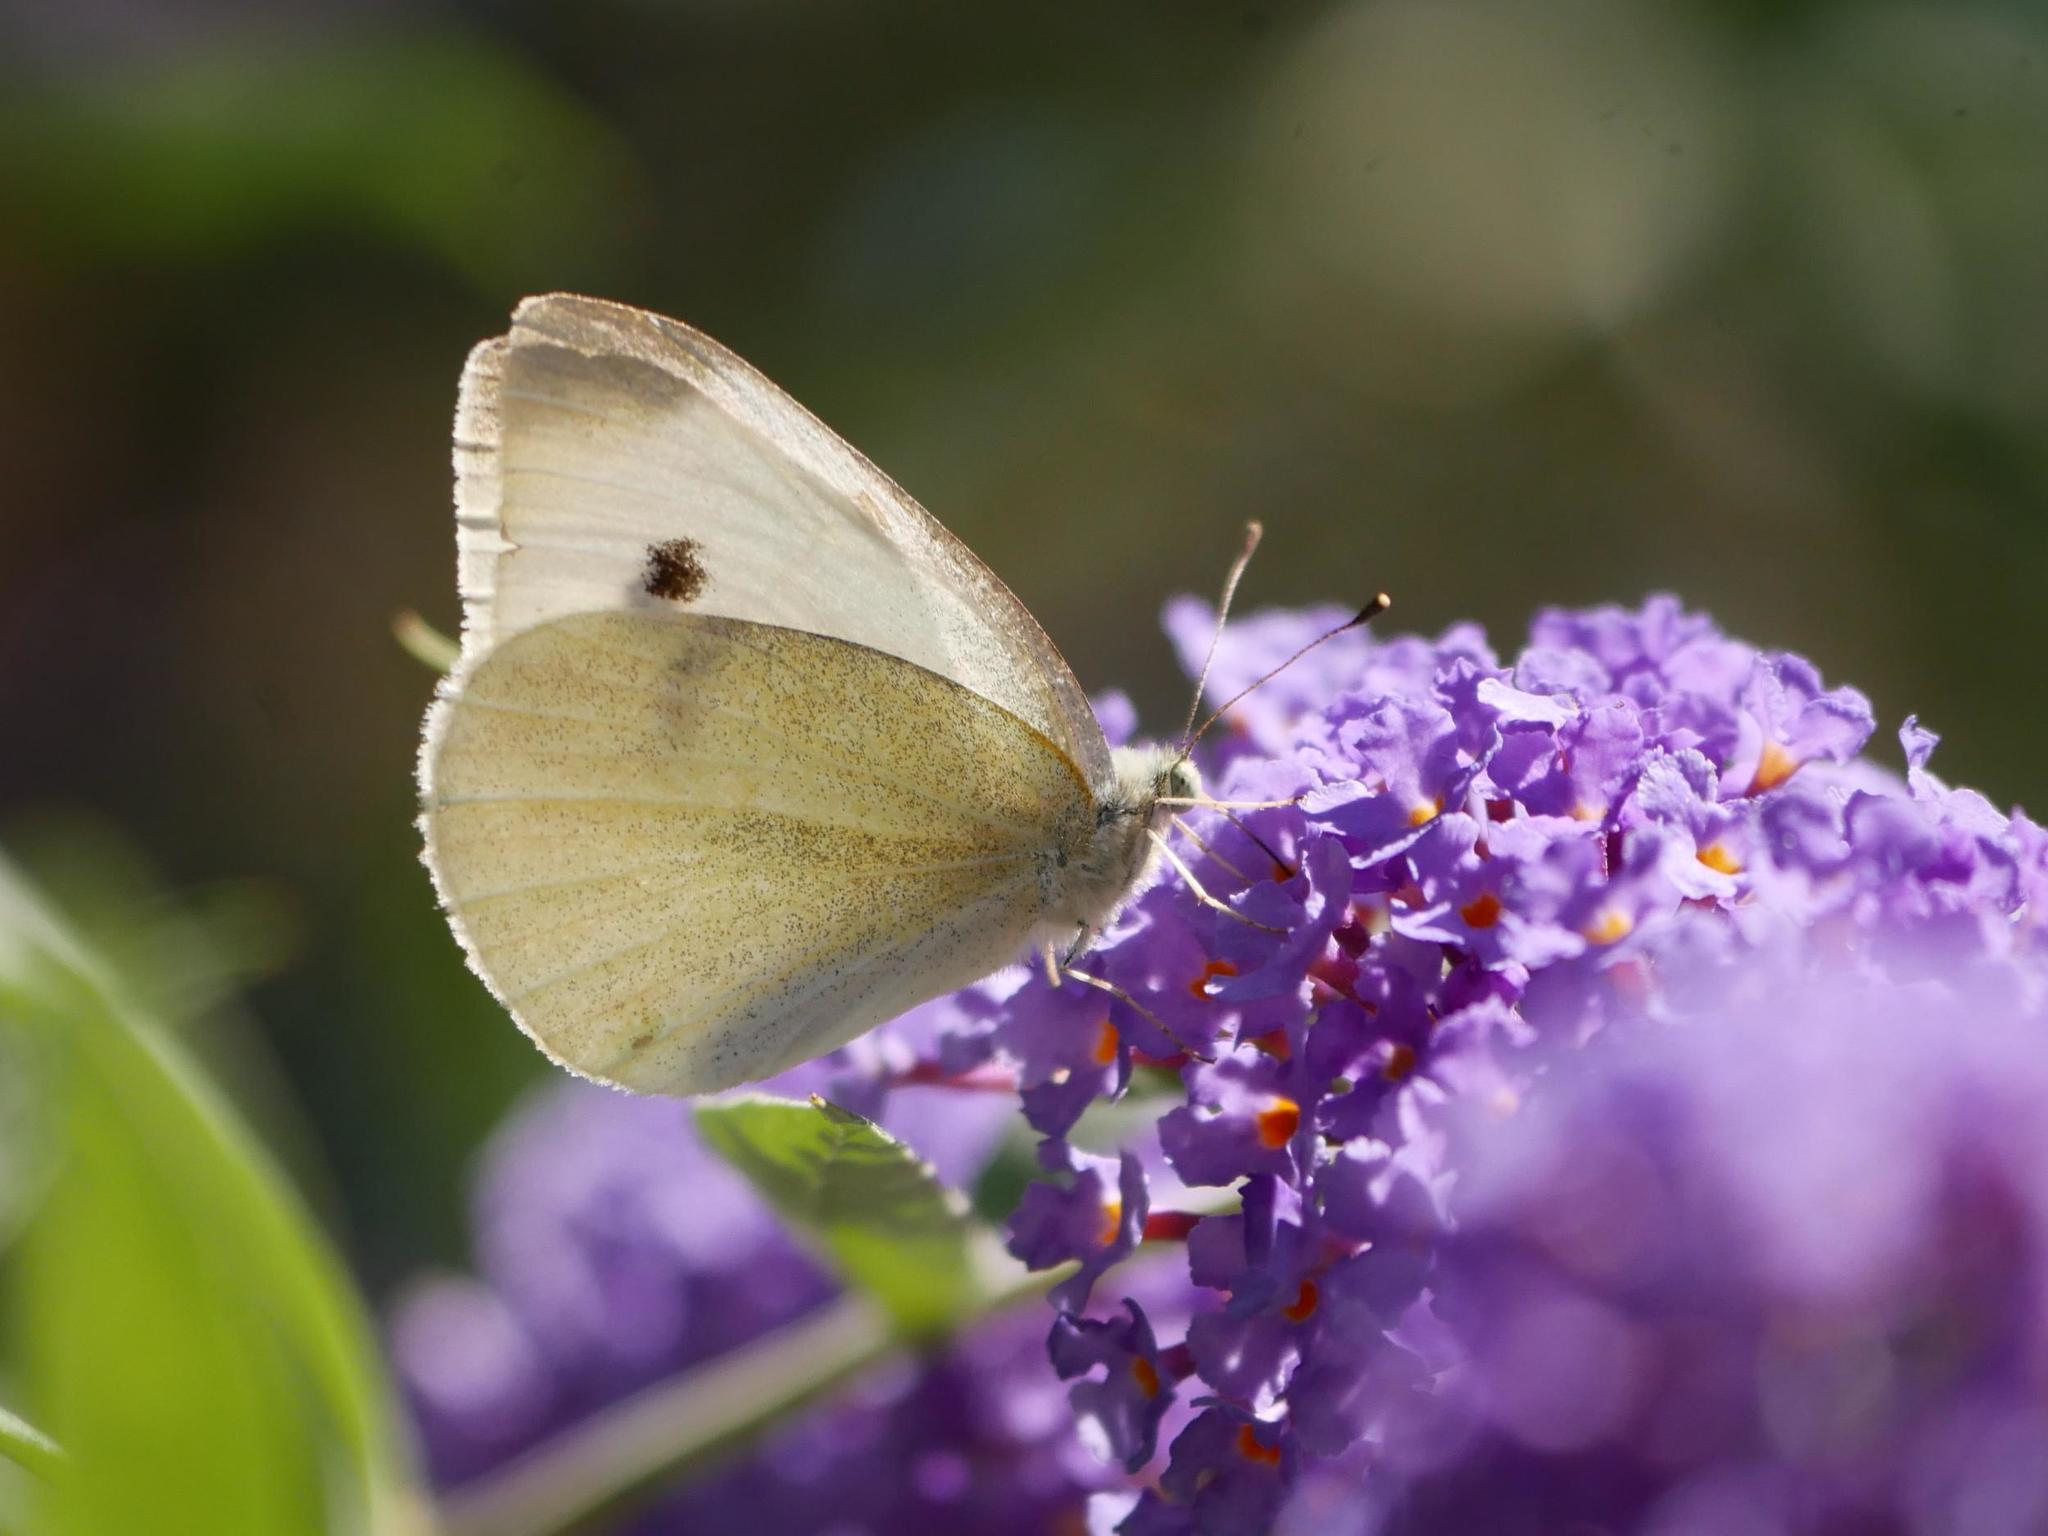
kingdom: Animalia
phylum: Arthropoda
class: Insecta
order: Lepidoptera
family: Pieridae
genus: Pieris
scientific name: Pieris rapae
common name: Small white
